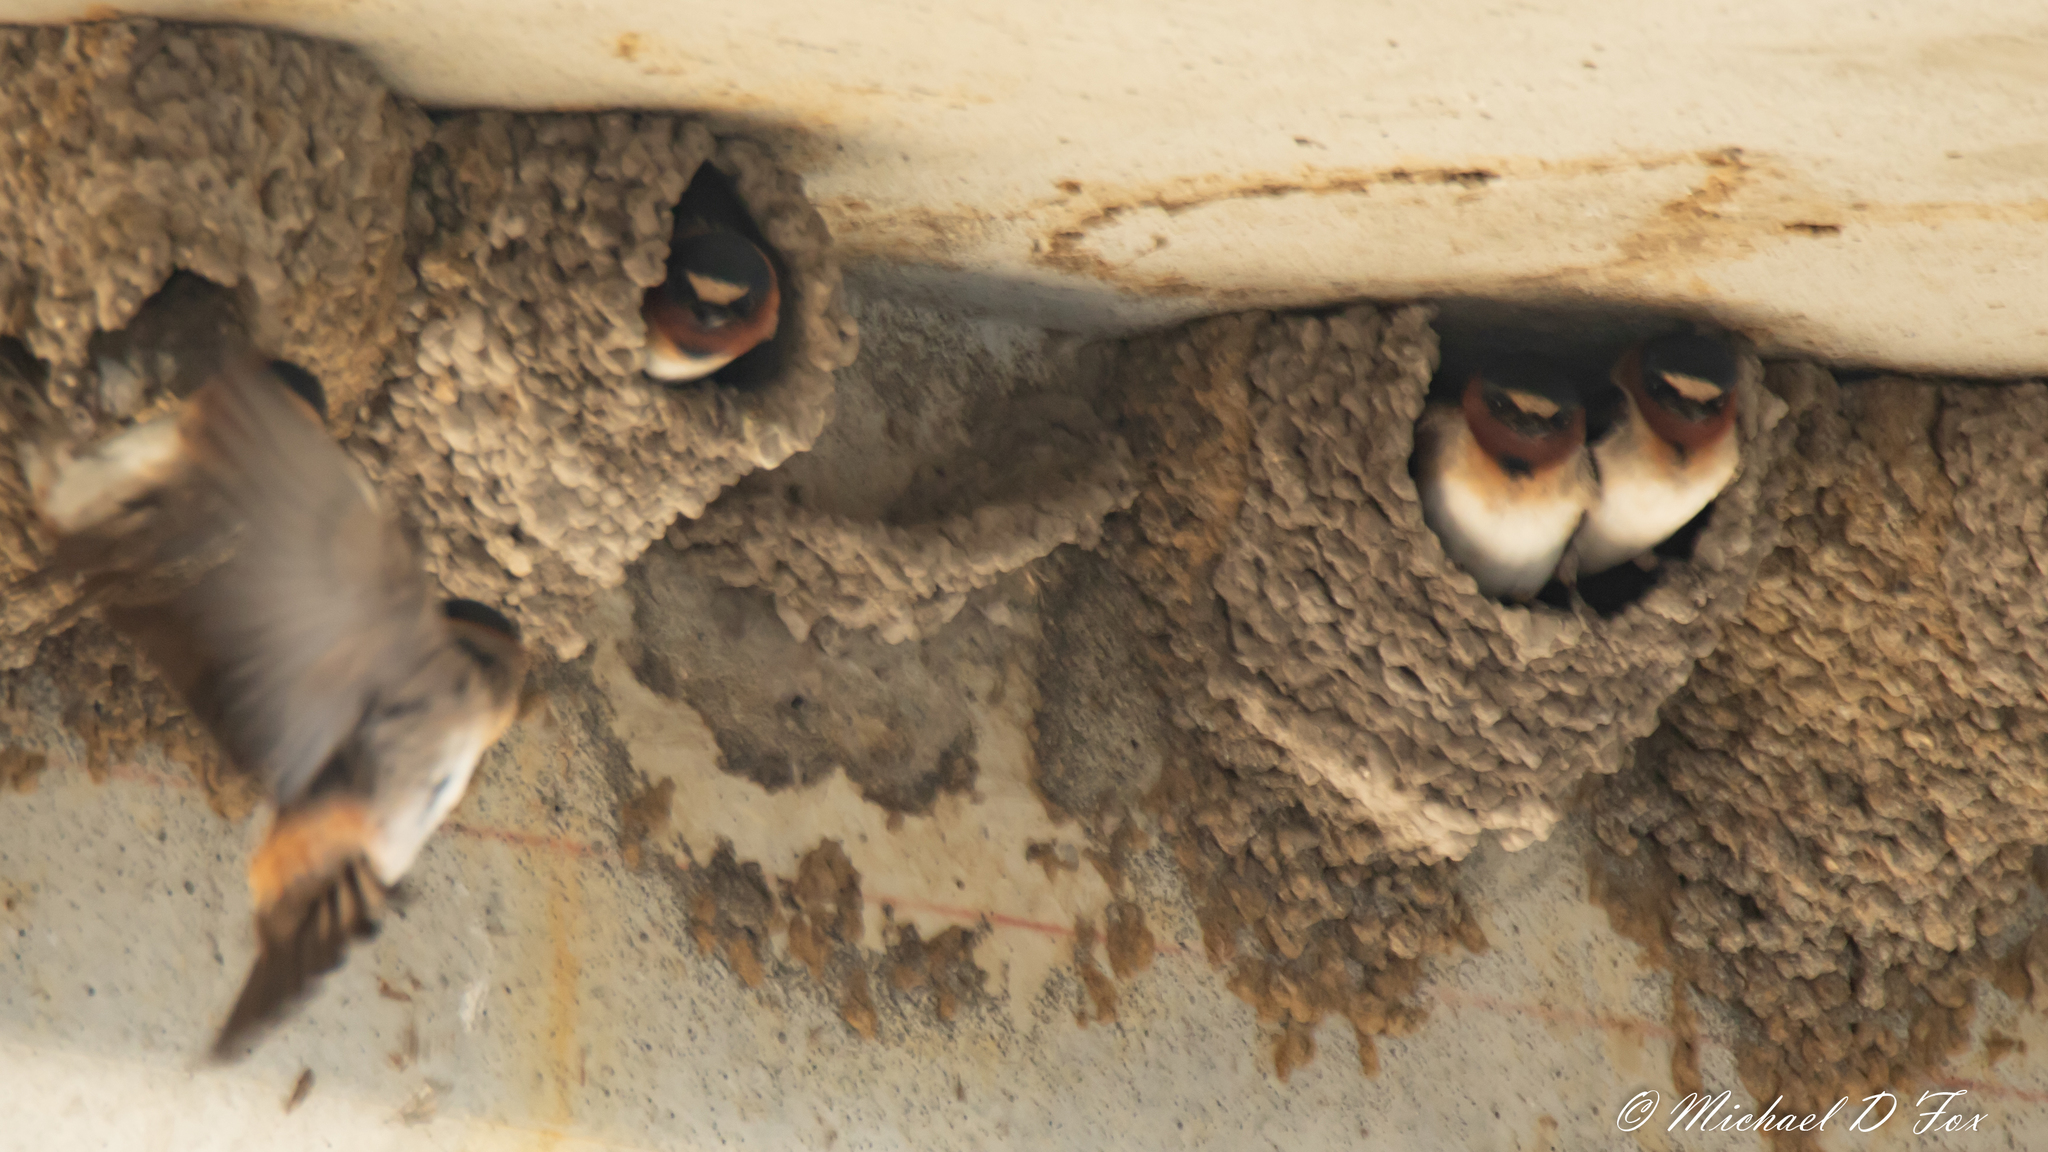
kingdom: Animalia
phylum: Chordata
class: Aves
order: Passeriformes
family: Hirundinidae
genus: Petrochelidon
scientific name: Petrochelidon pyrrhonota
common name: American cliff swallow
